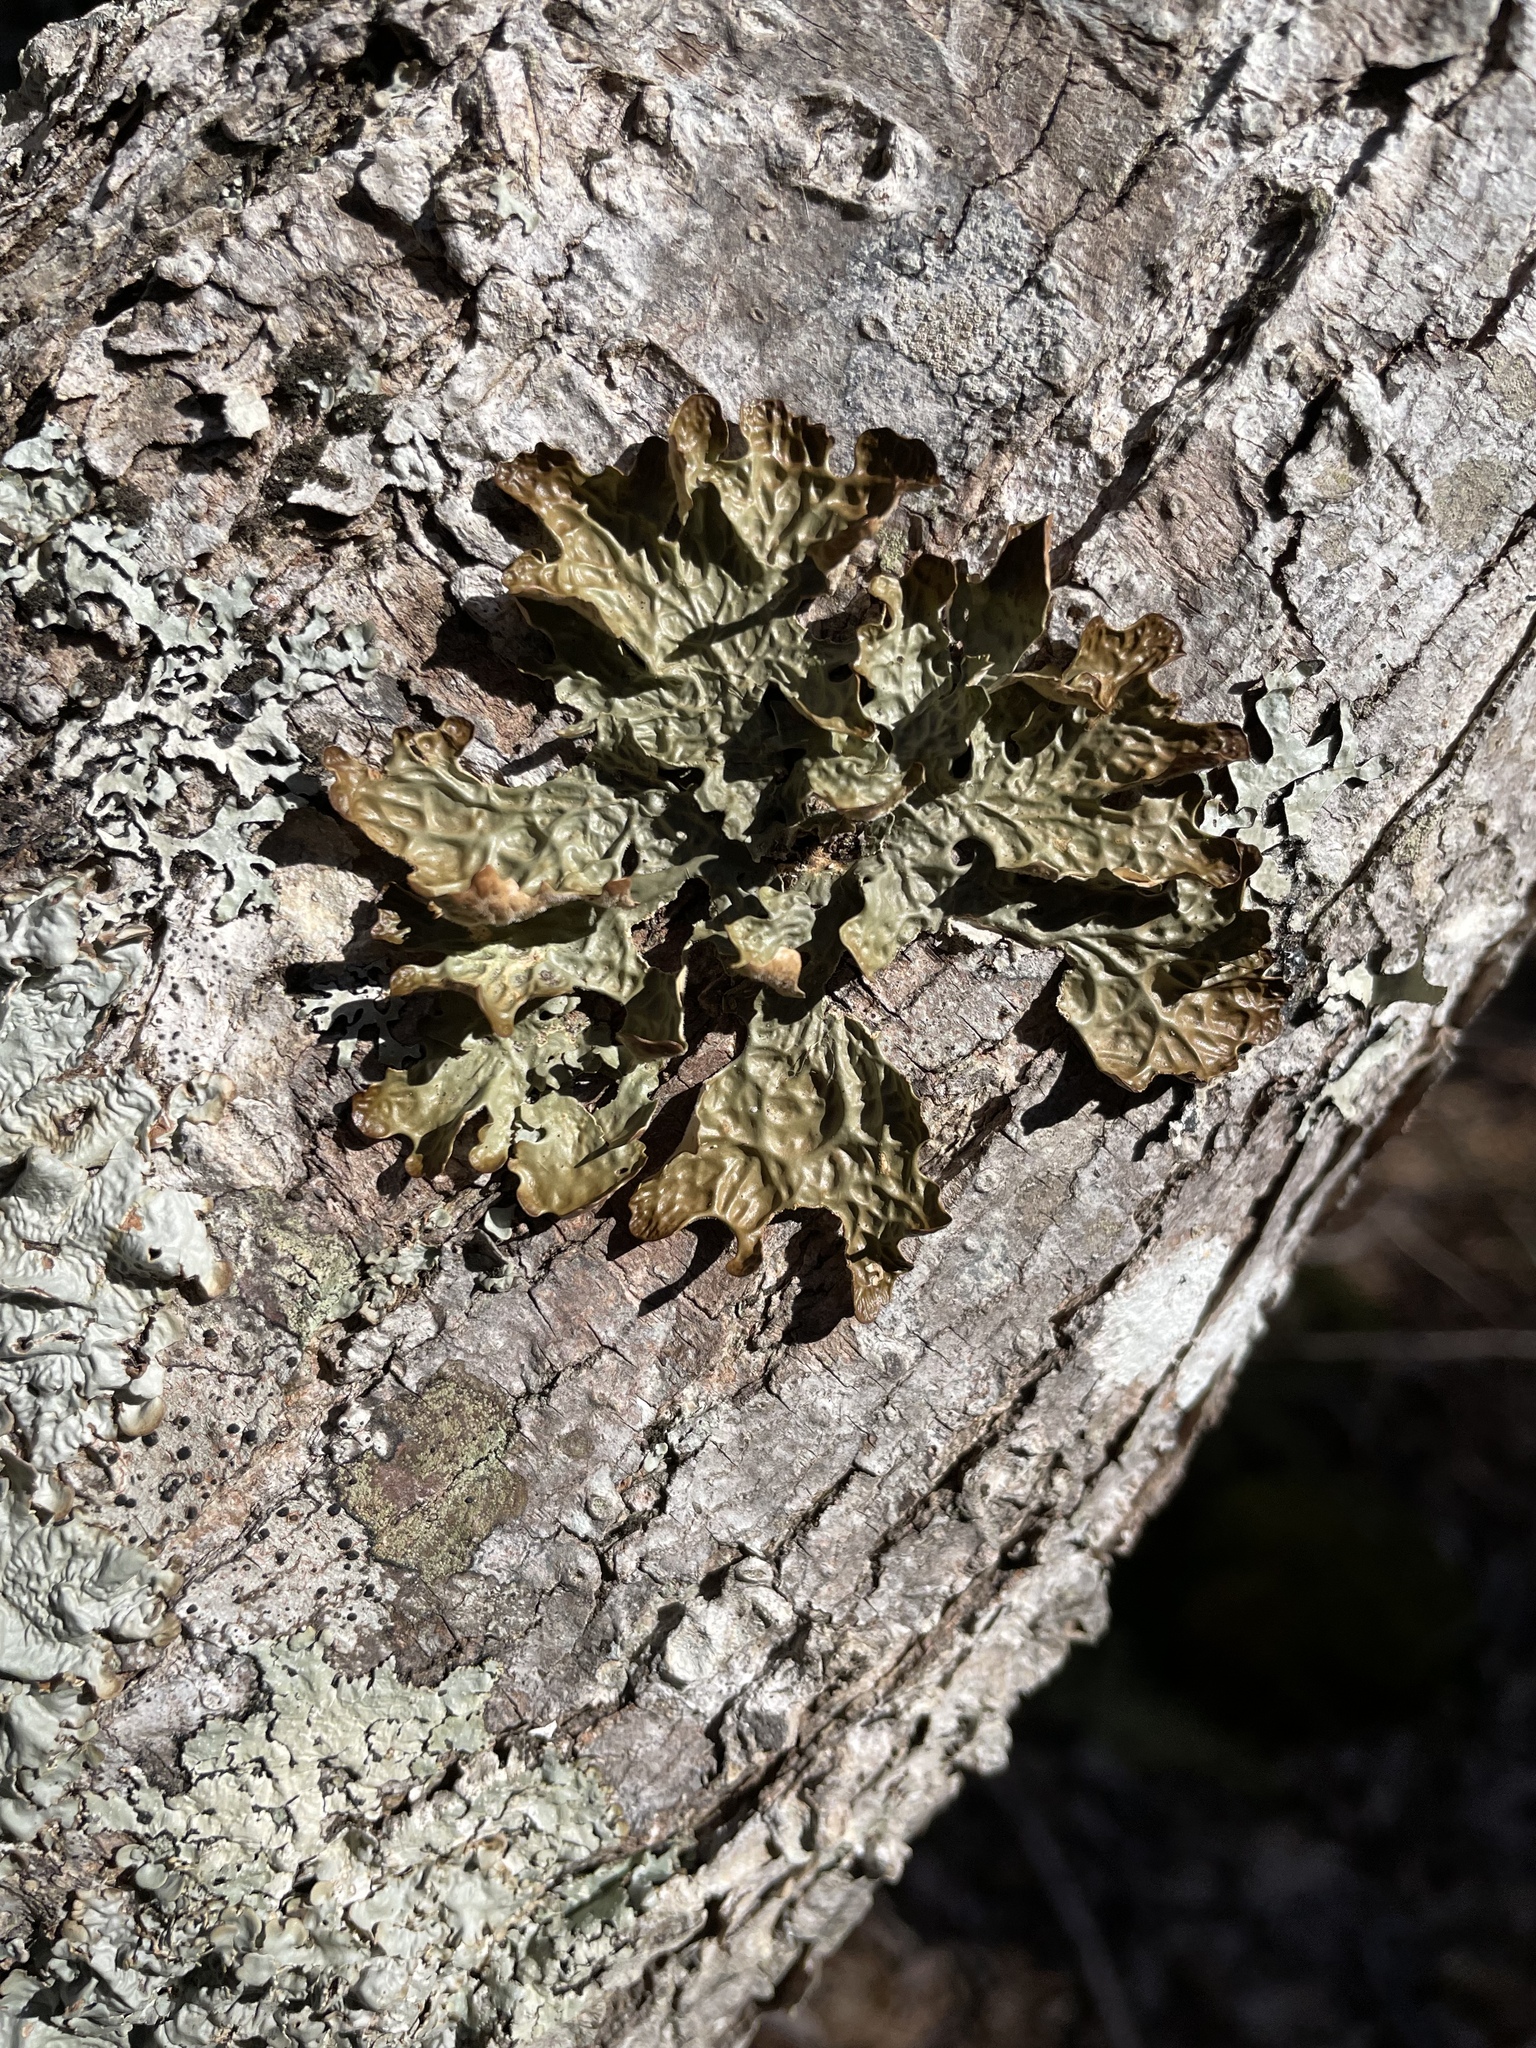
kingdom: Fungi
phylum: Ascomycota
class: Lecanoromycetes
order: Peltigerales
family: Lobariaceae
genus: Lobaria
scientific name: Lobaria pulmonaria
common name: Lungwort
